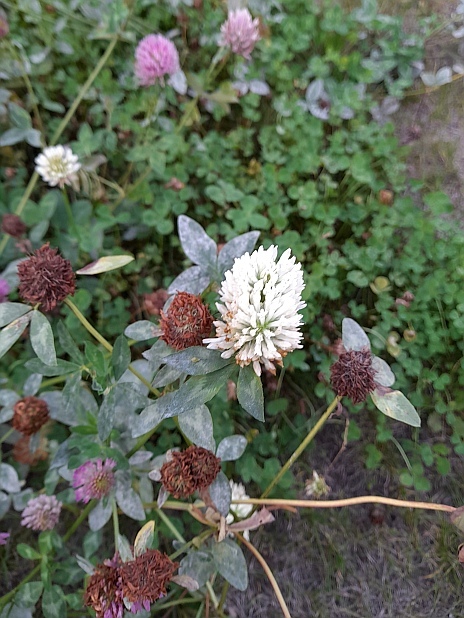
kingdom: Plantae
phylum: Tracheophyta
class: Magnoliopsida
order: Fabales
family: Fabaceae
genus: Trifolium
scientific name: Trifolium pratense
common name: Red clover
